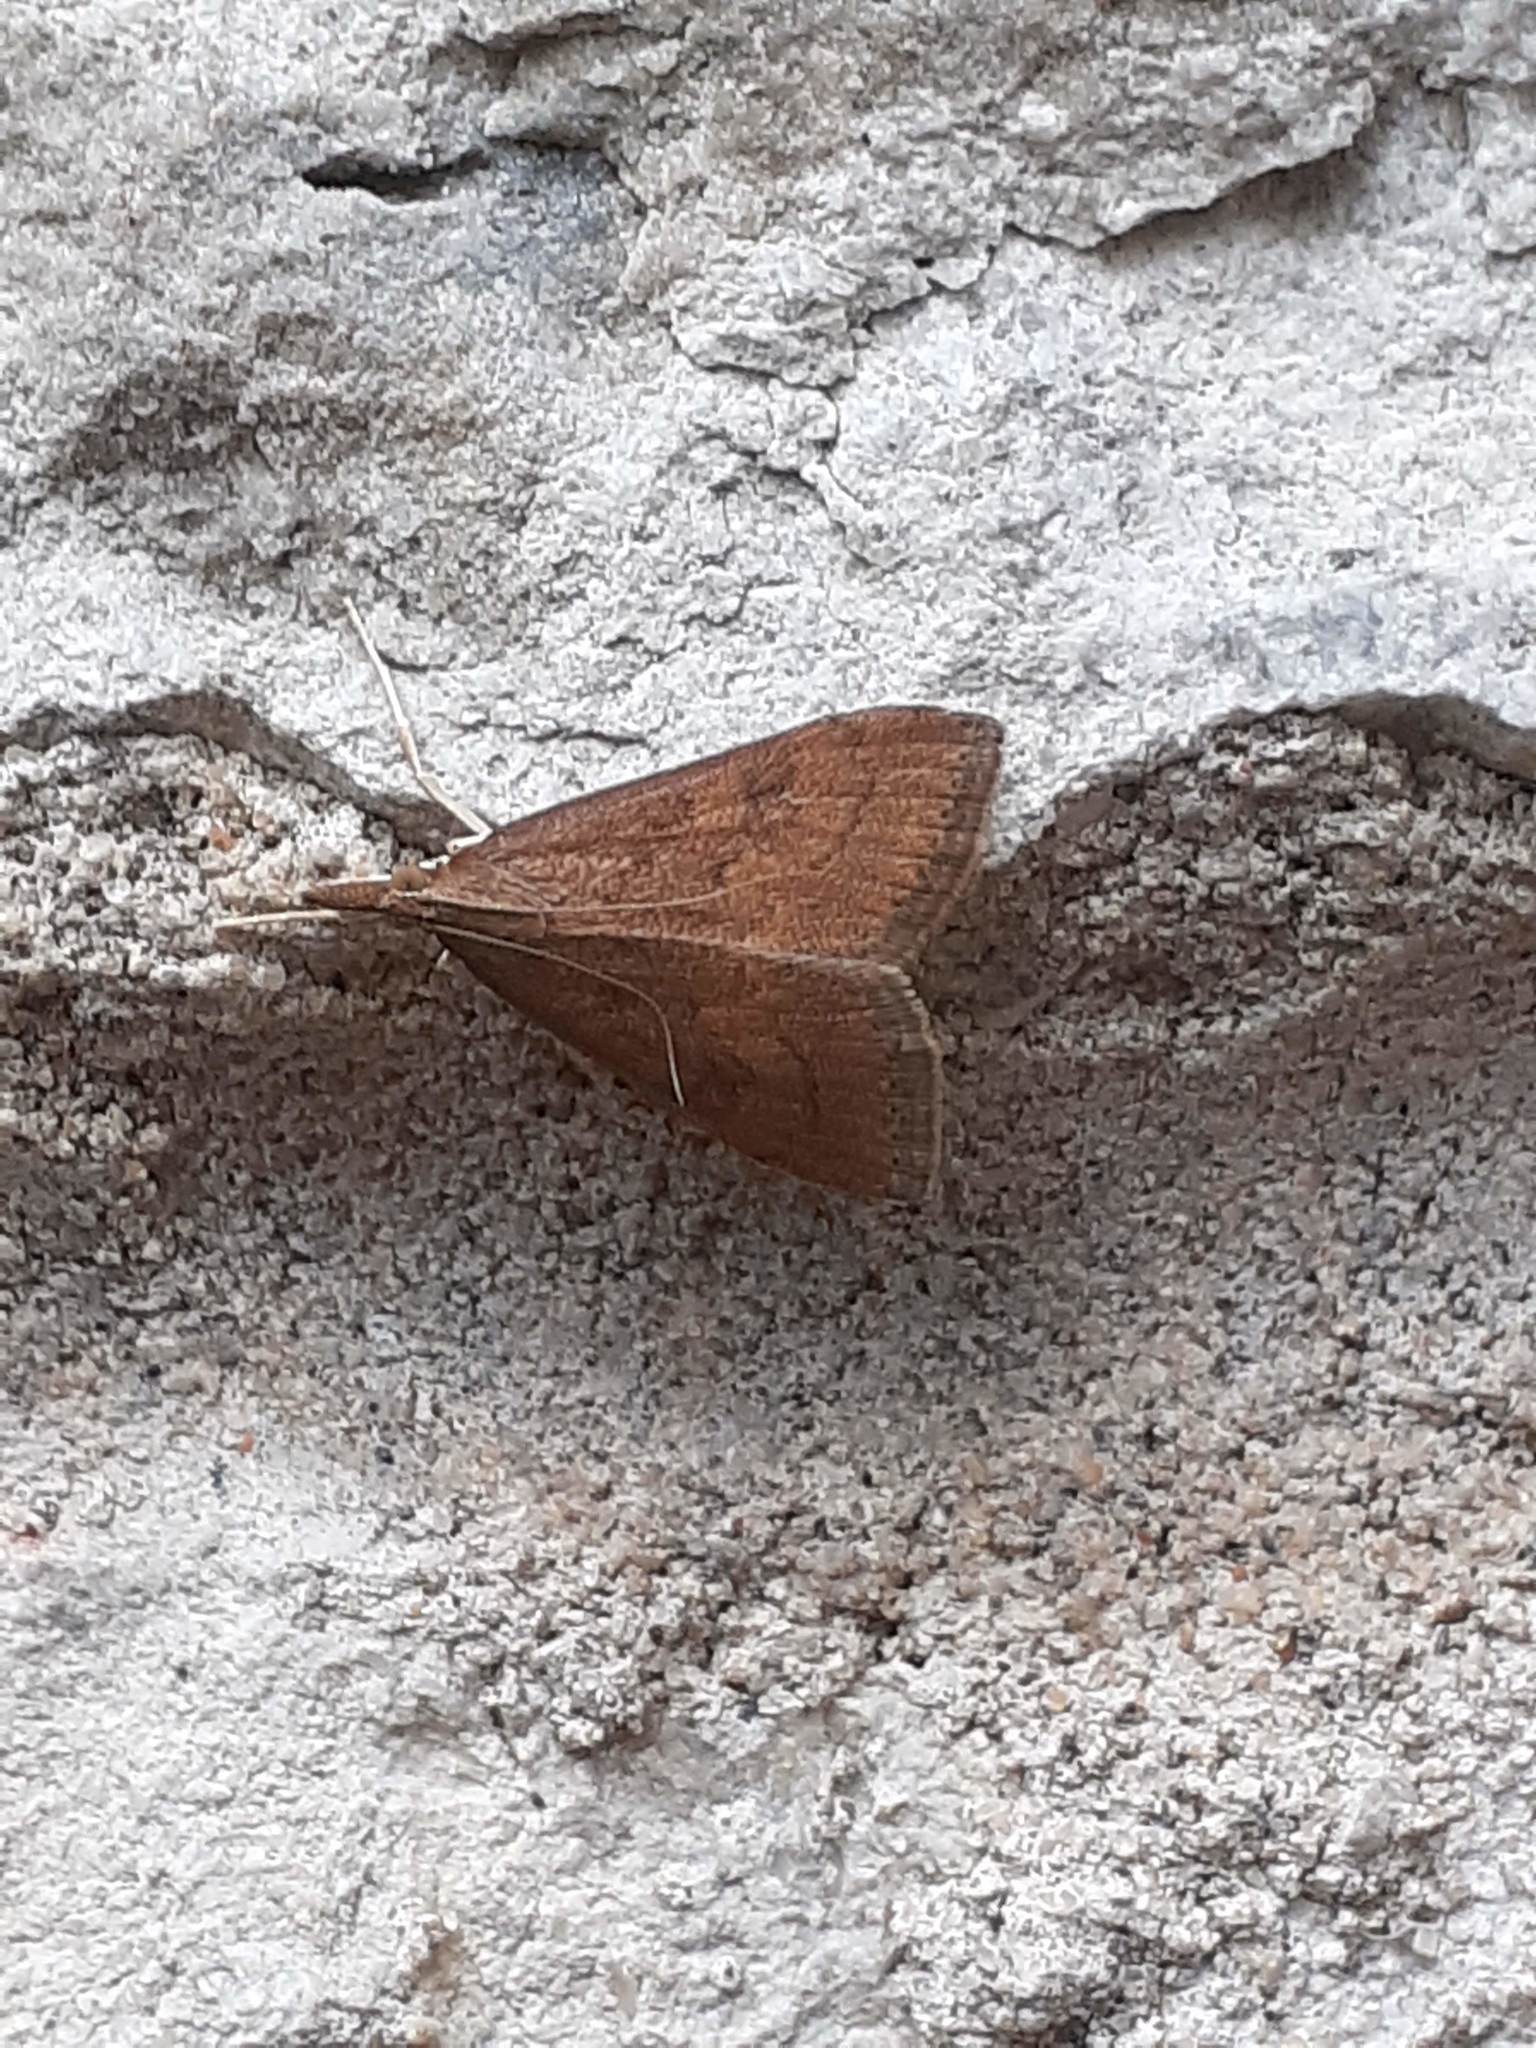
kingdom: Animalia
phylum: Arthropoda
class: Insecta
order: Lepidoptera
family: Crambidae
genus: Udea
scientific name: Udea rubigalis
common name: Celery leaftier moth
